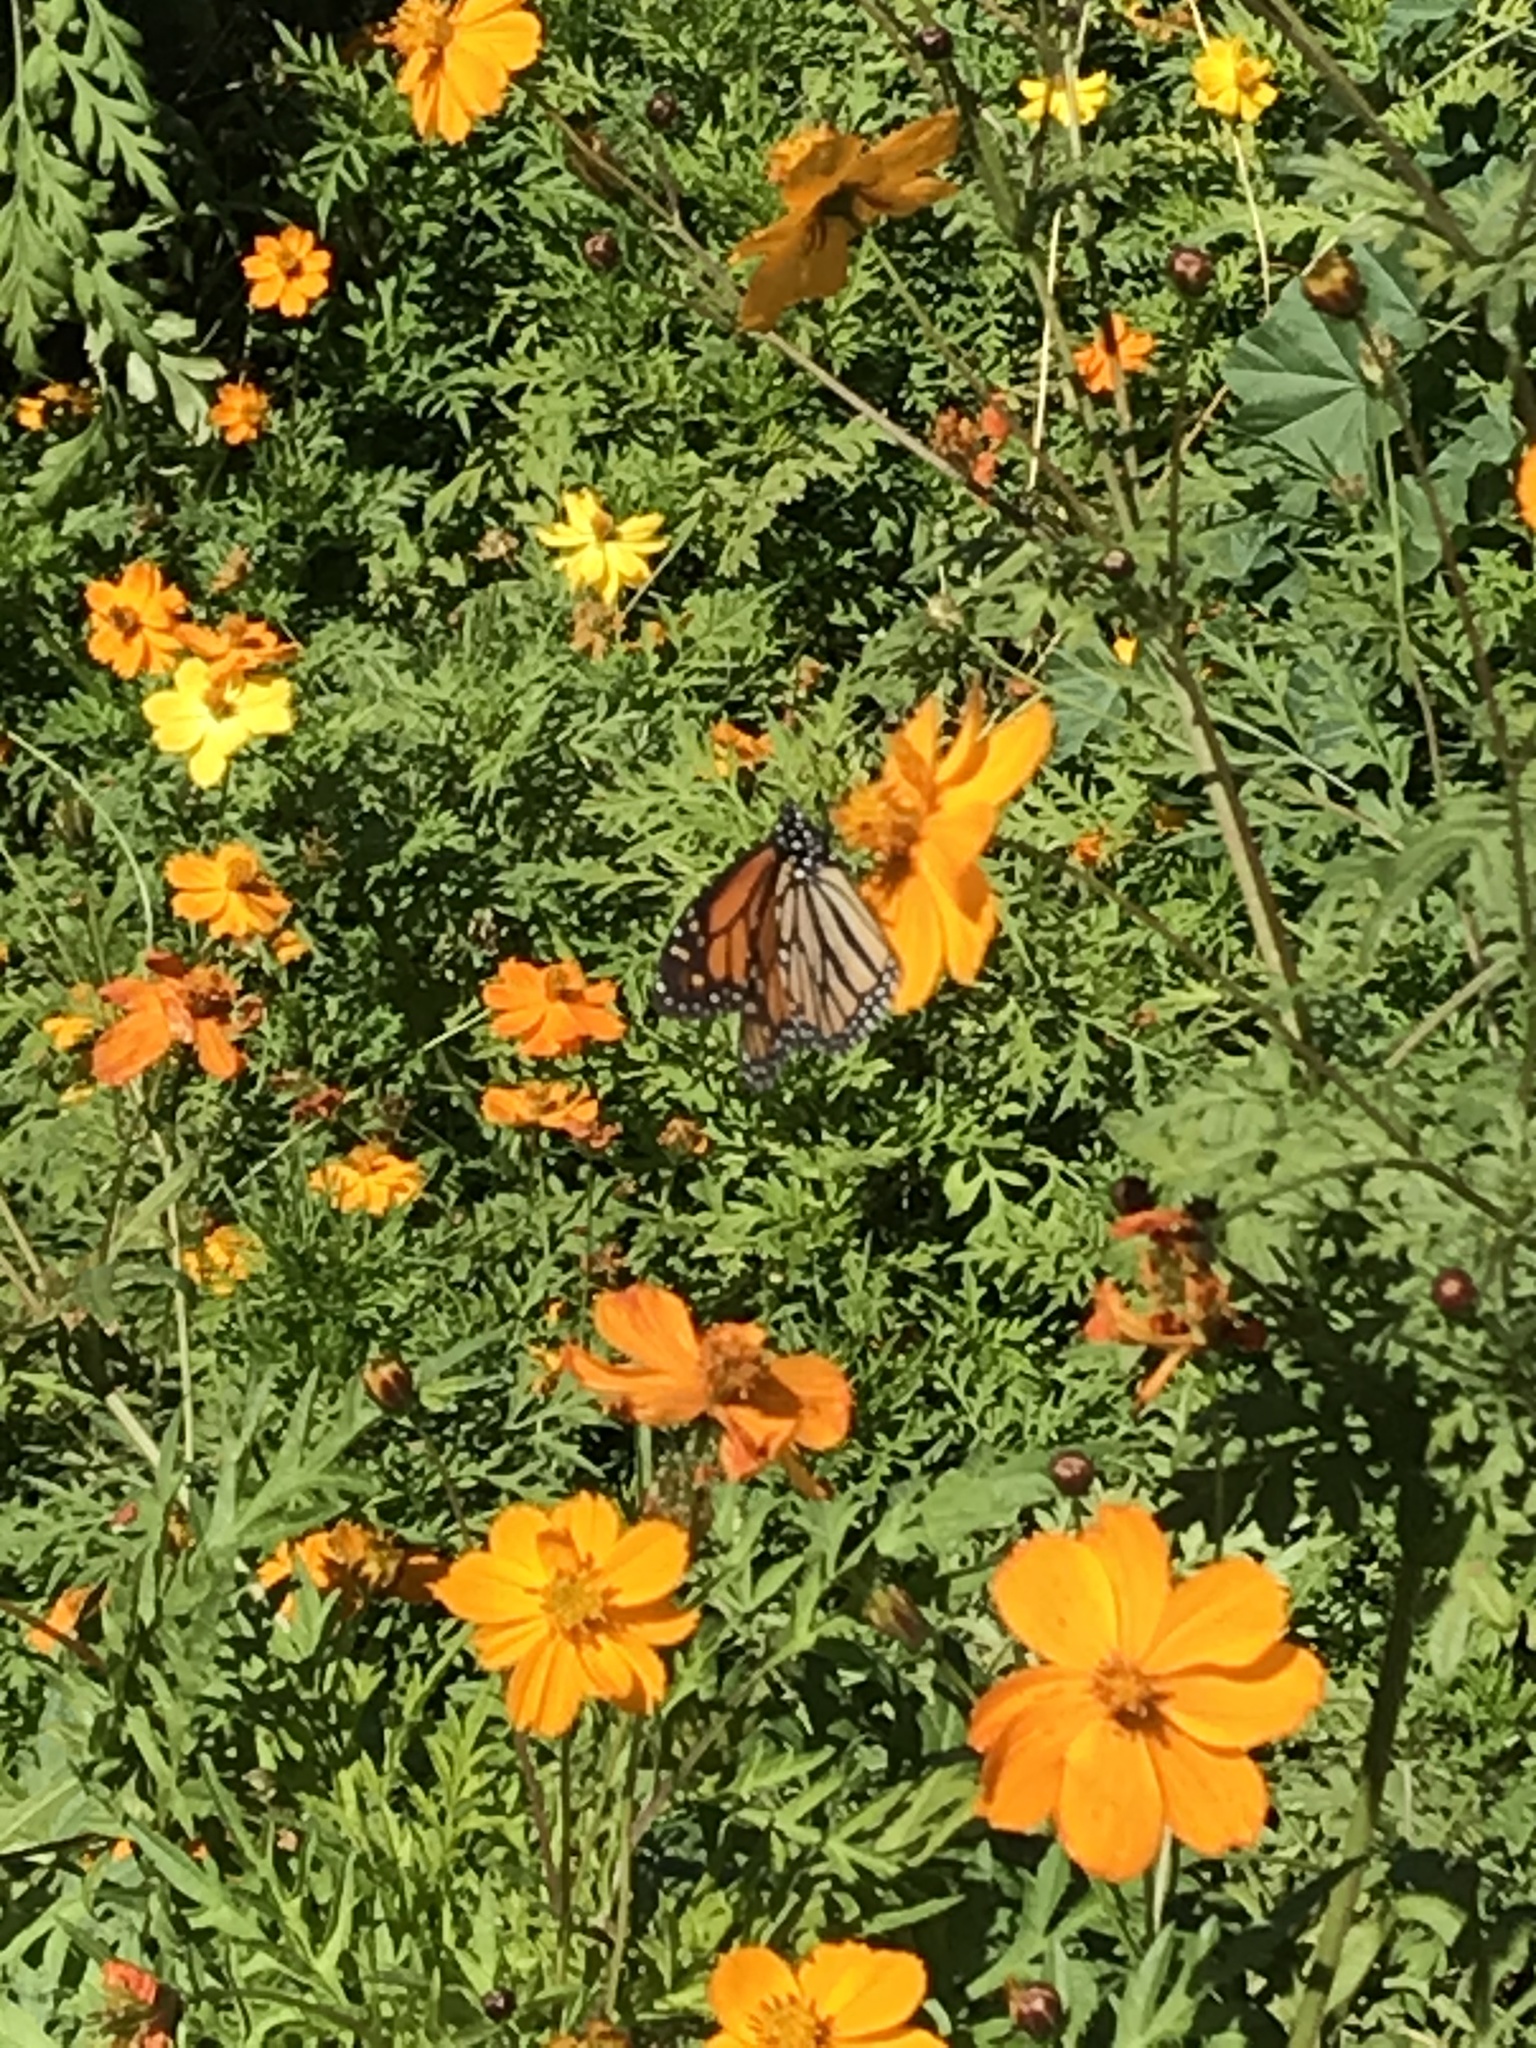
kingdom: Animalia
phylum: Arthropoda
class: Insecta
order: Lepidoptera
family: Nymphalidae
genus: Danaus
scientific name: Danaus plexippus
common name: Monarch
